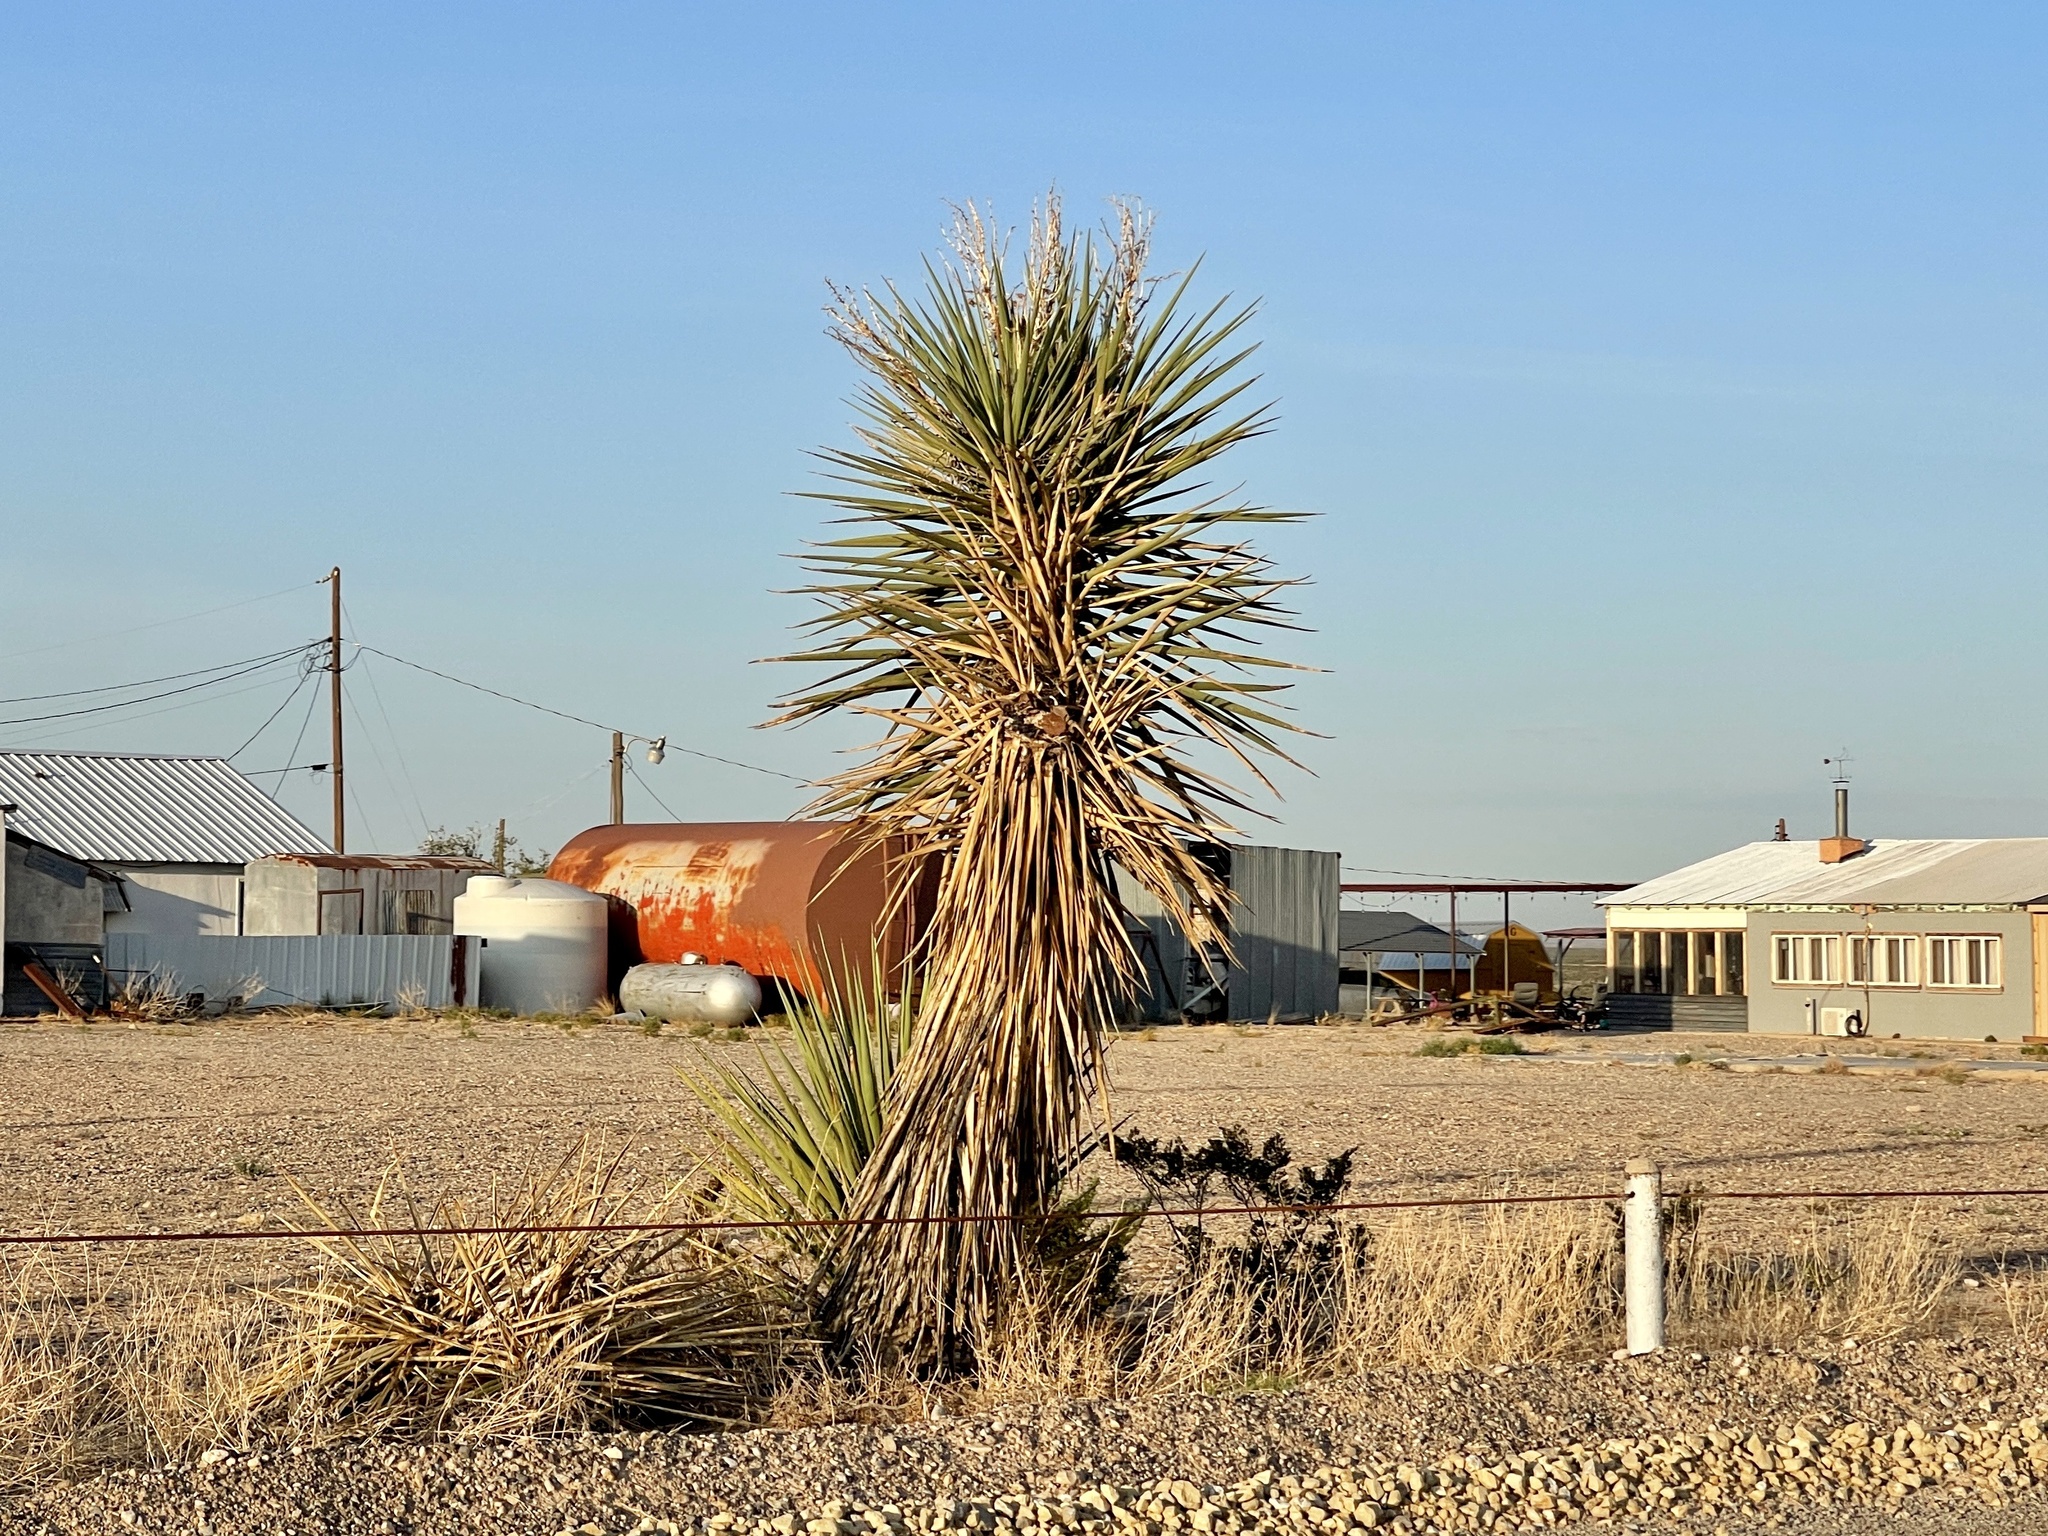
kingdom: Plantae
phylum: Tracheophyta
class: Liliopsida
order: Asparagales
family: Asparagaceae
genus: Yucca
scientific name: Yucca treculiana
